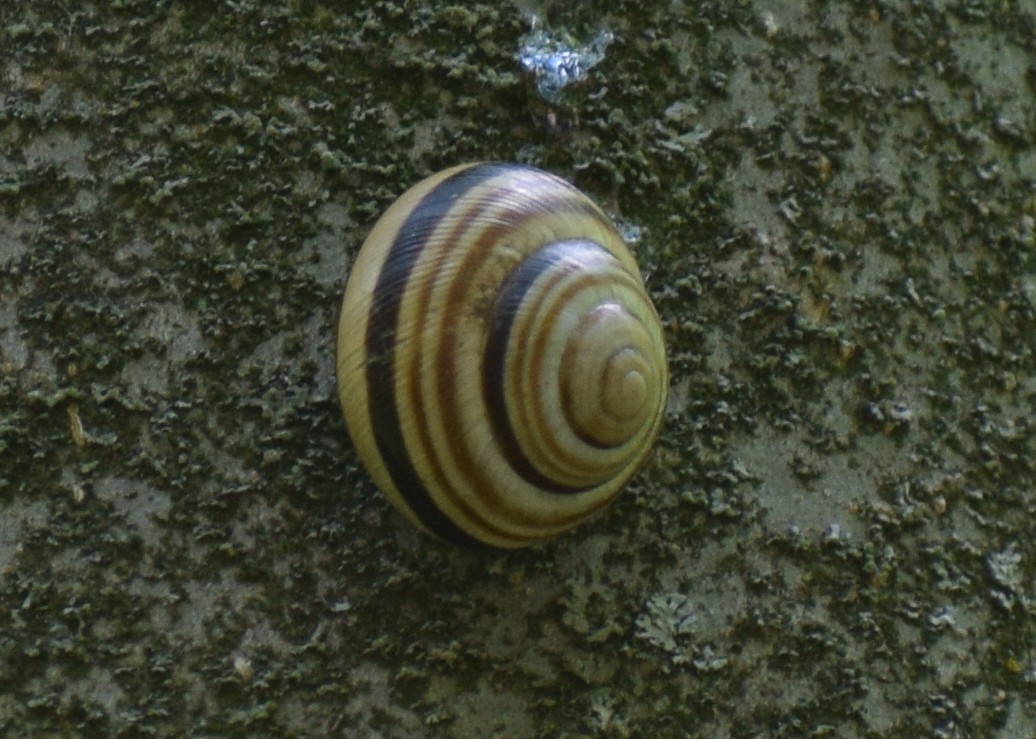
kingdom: Animalia
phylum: Mollusca
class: Gastropoda
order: Stylommatophora
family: Helicidae
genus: Caucasotachea
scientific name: Caucasotachea vindobonensis
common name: European helicid land snail
